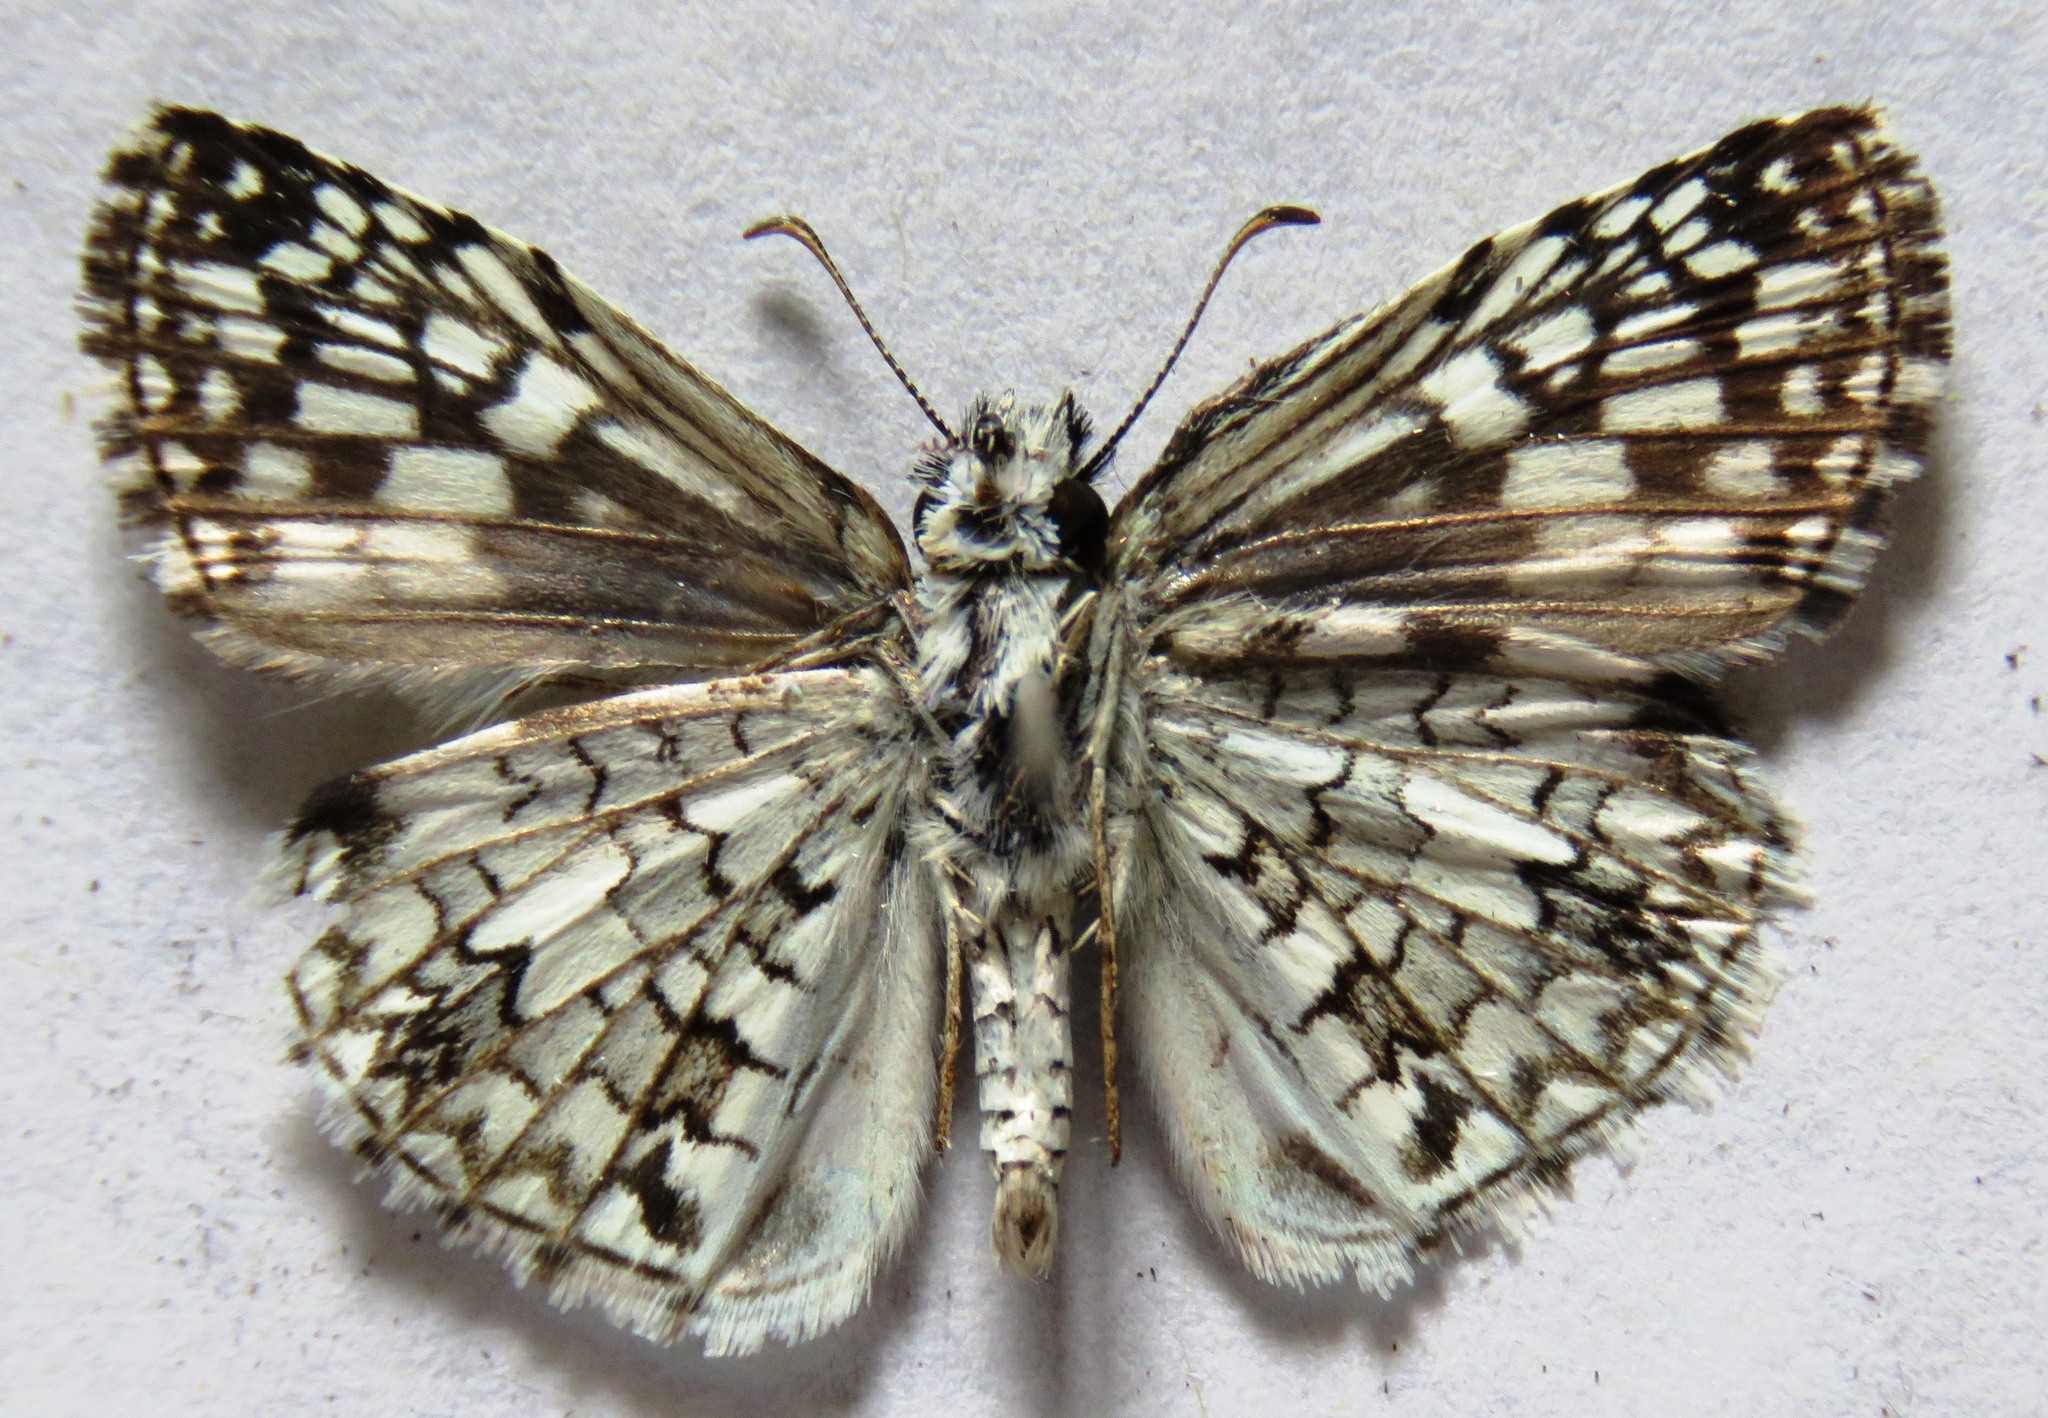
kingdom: Animalia
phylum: Arthropoda
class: Insecta
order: Lepidoptera
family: Hesperiidae
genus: Pyrgus
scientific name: Pyrgus oileus
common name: Tropical checkered-skipper
